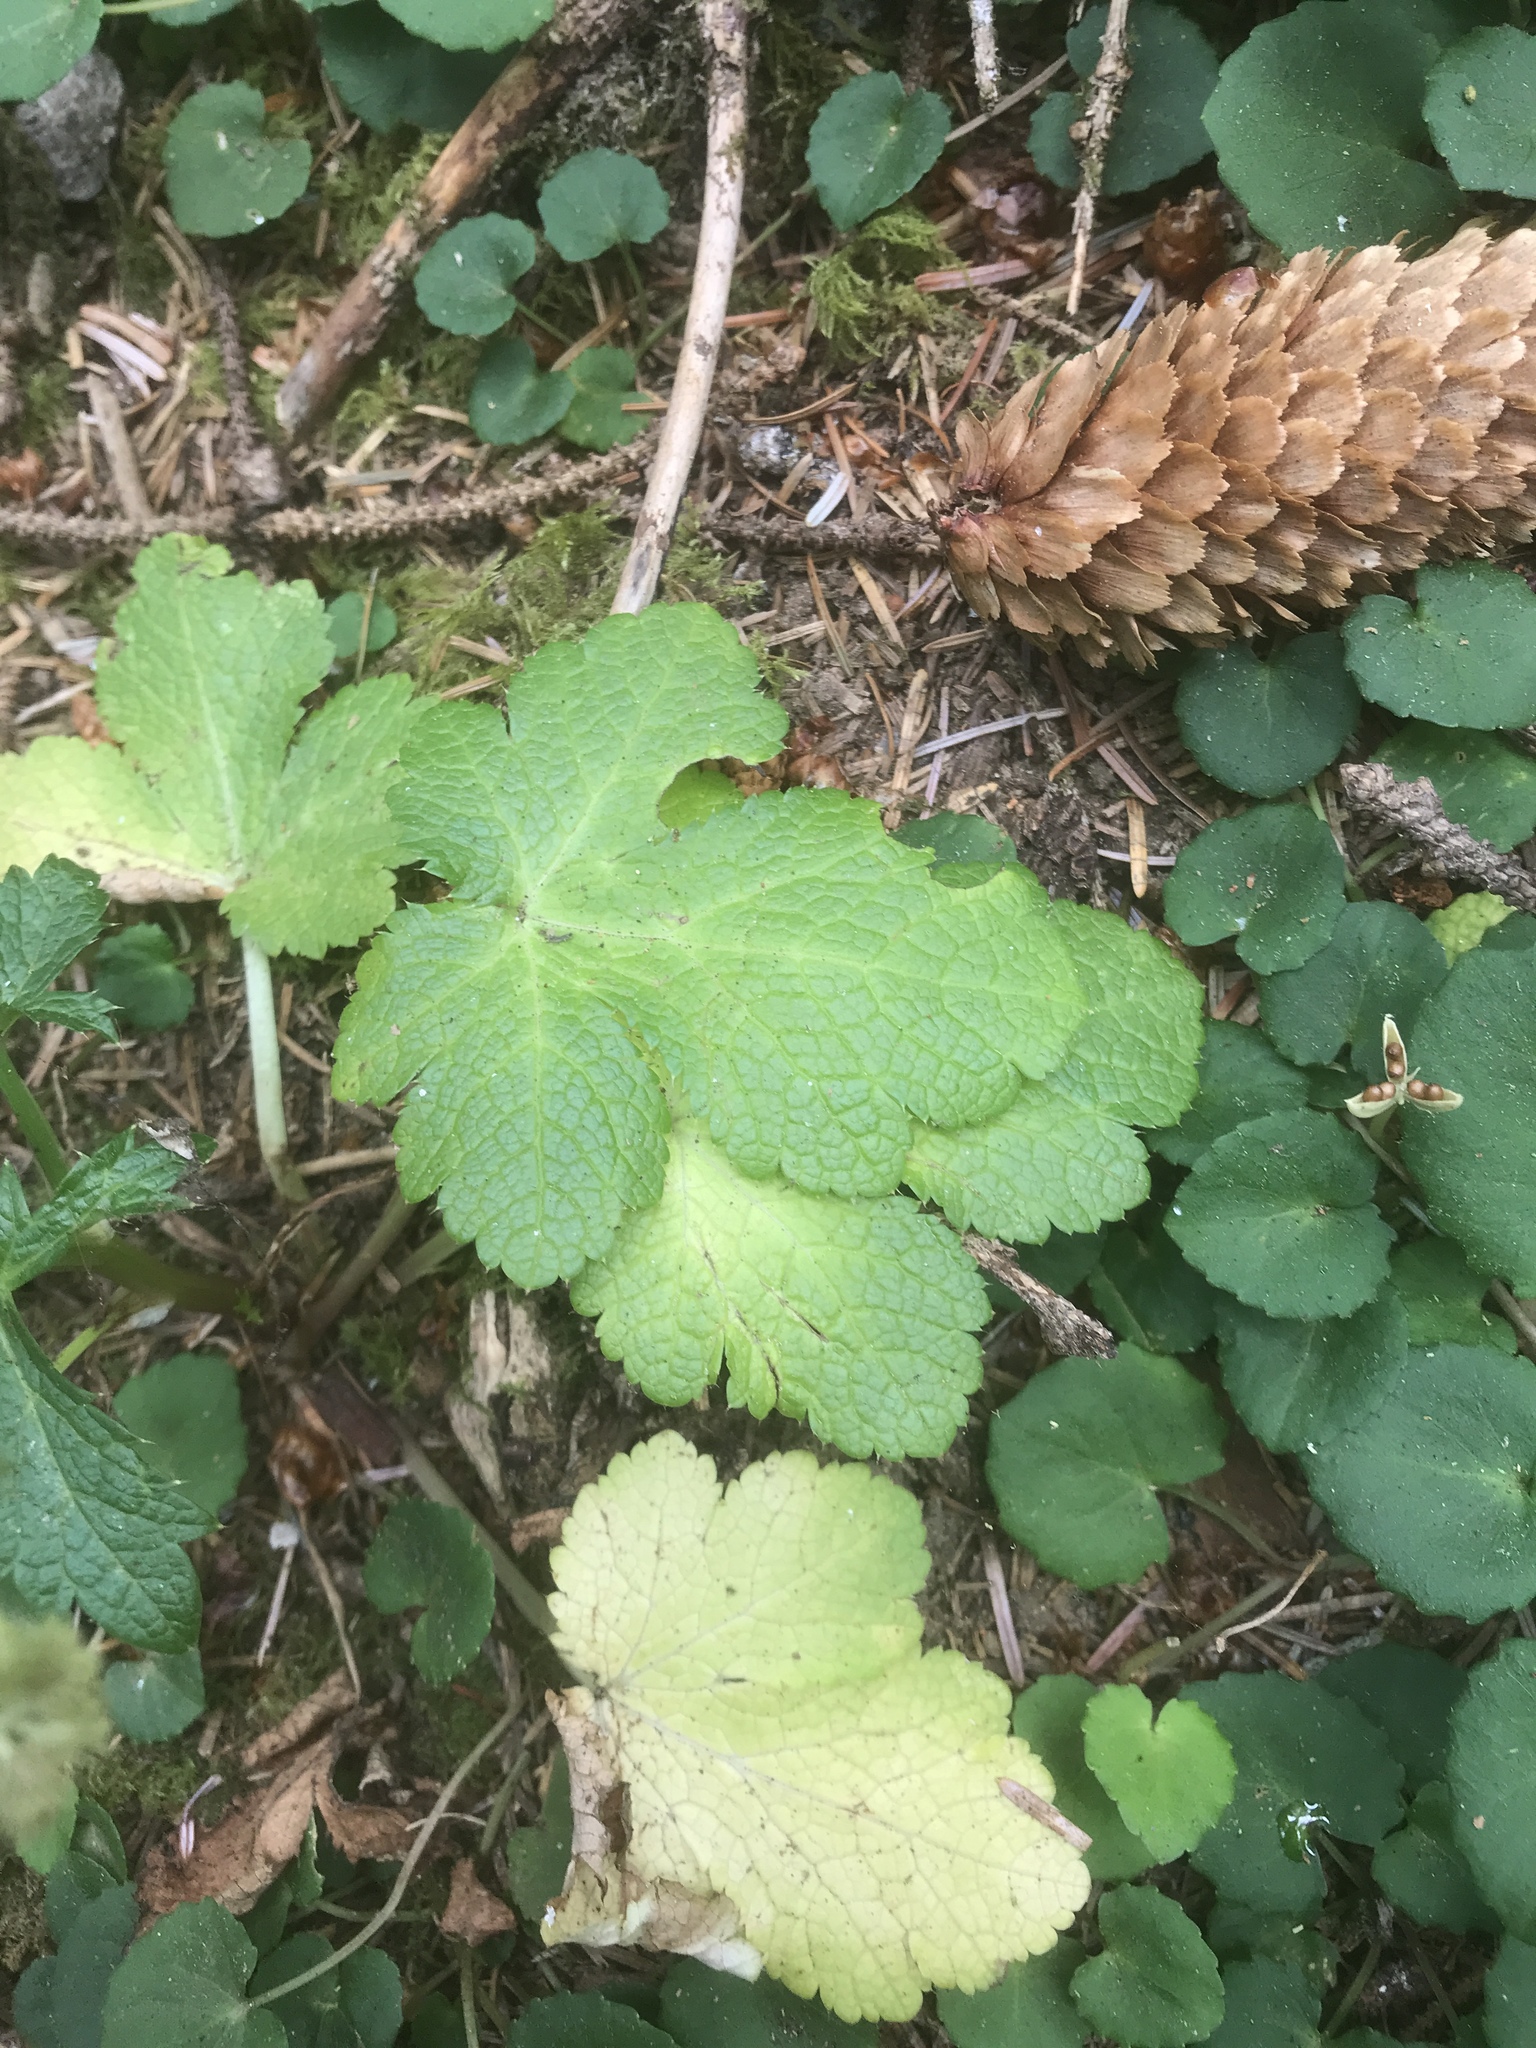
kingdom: Plantae
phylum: Tracheophyta
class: Magnoliopsida
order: Apiales
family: Apiaceae
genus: Sanicula
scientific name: Sanicula crassicaulis
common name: Western snakeroot
